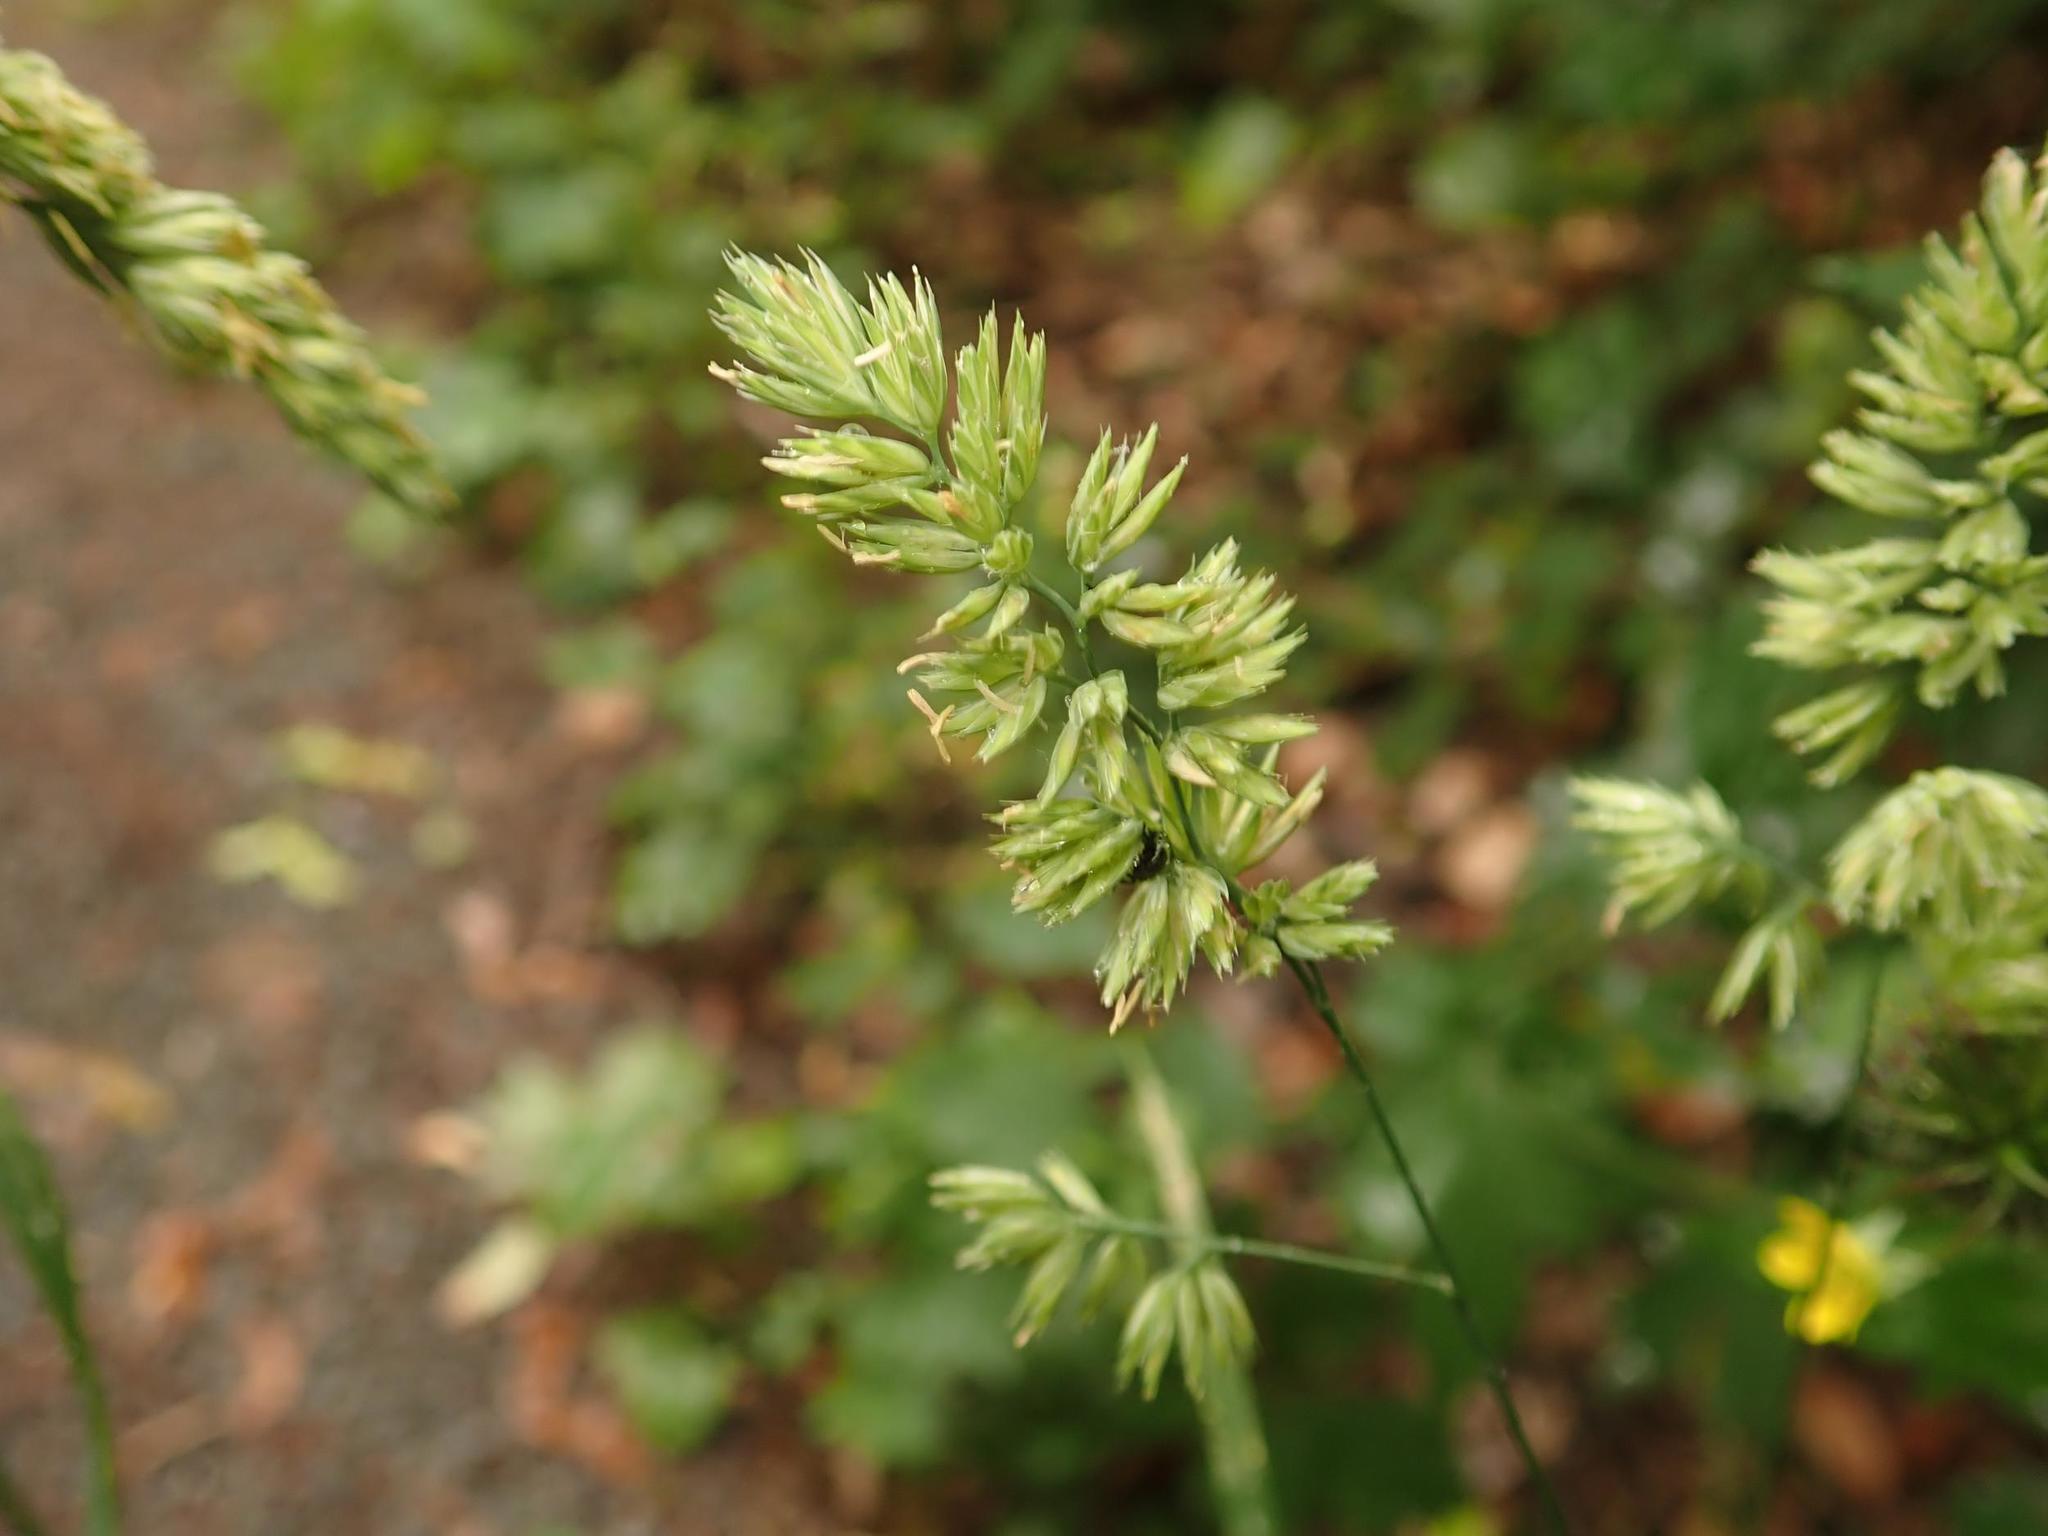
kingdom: Plantae
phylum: Tracheophyta
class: Liliopsida
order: Poales
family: Poaceae
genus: Dactylis
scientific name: Dactylis glomerata
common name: Orchardgrass
